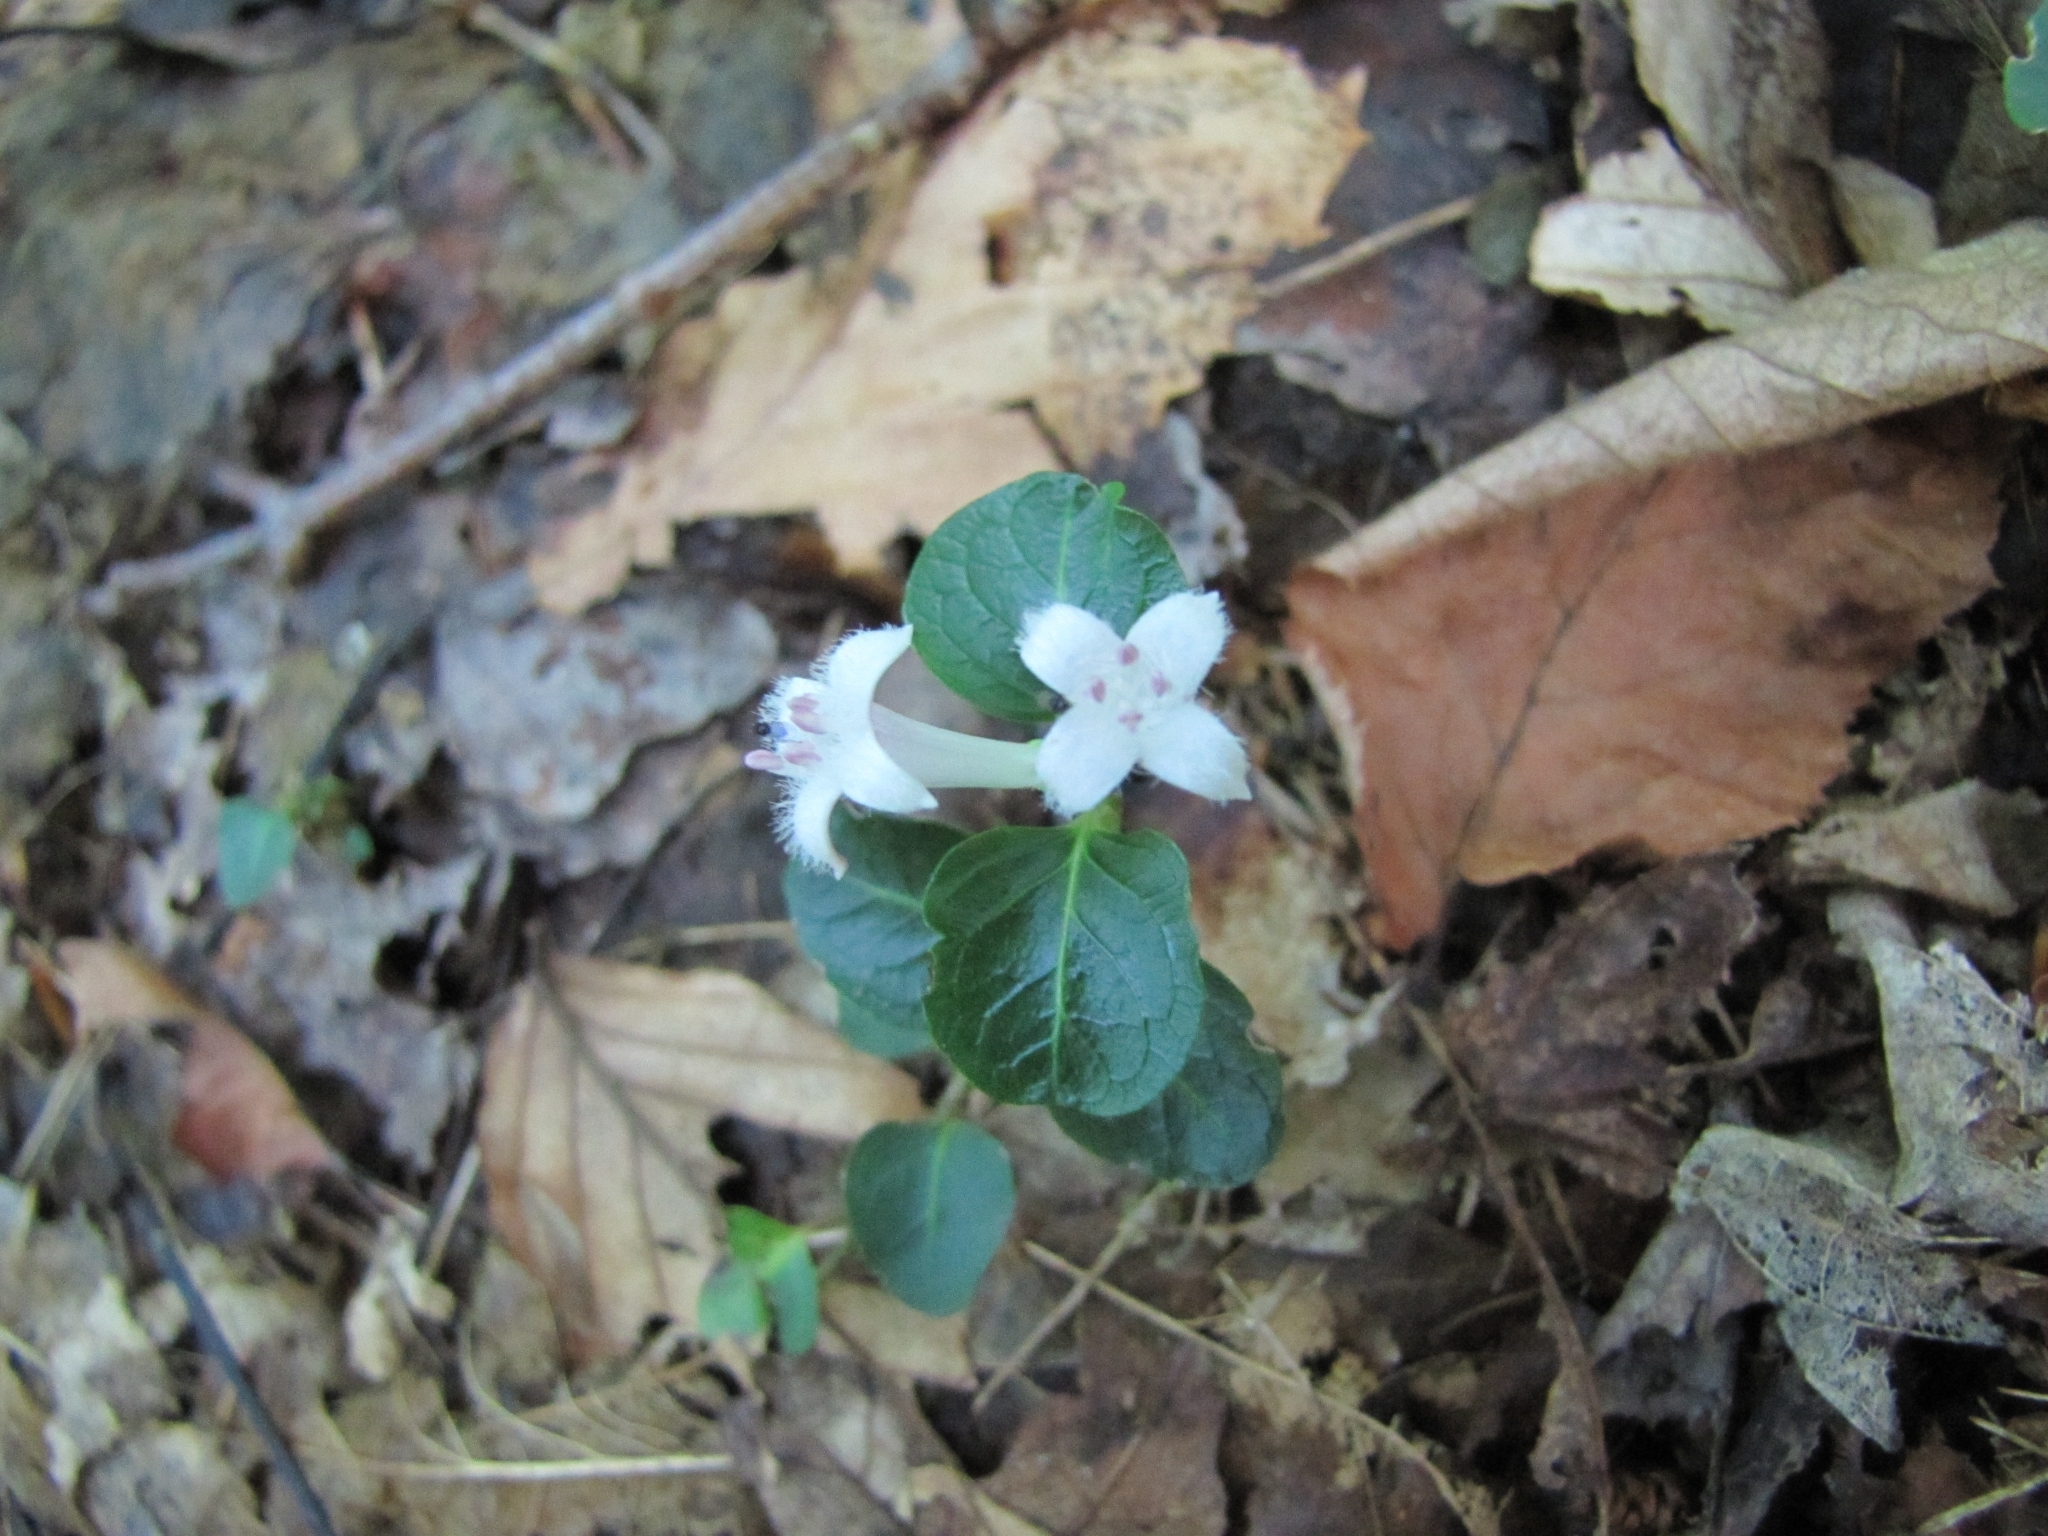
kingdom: Plantae
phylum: Tracheophyta
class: Magnoliopsida
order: Gentianales
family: Rubiaceae
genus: Mitchella
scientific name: Mitchella repens
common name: Partridge-berry
